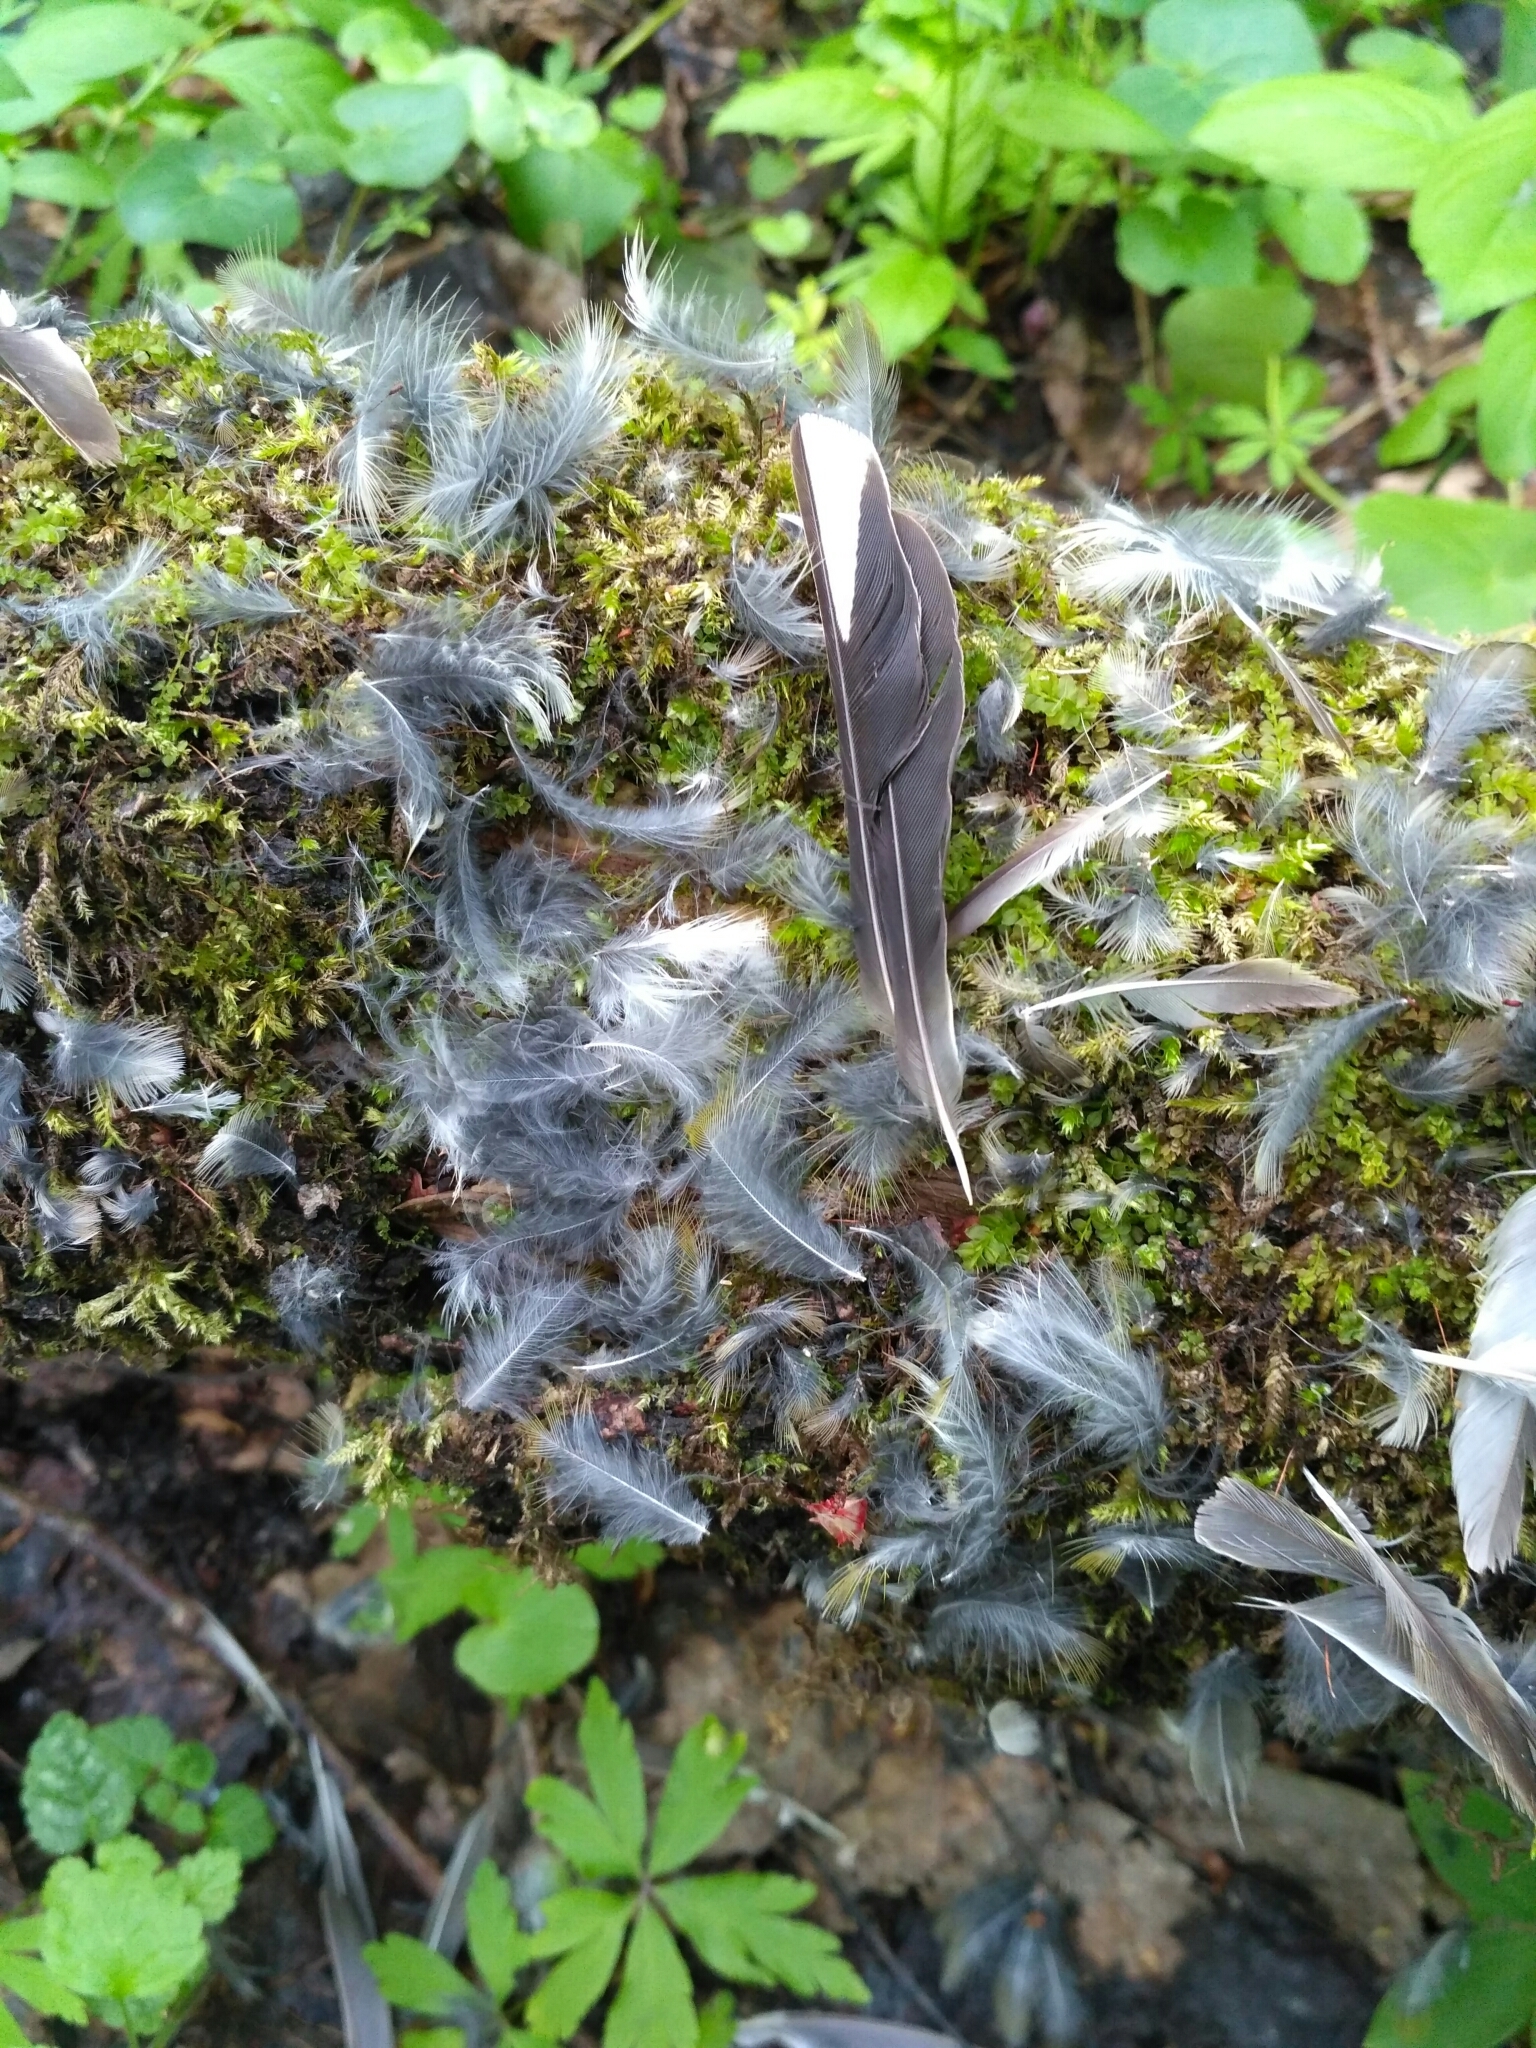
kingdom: Animalia
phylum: Chordata
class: Aves
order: Passeriformes
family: Fringillidae
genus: Fringilla
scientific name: Fringilla coelebs
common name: Common chaffinch
